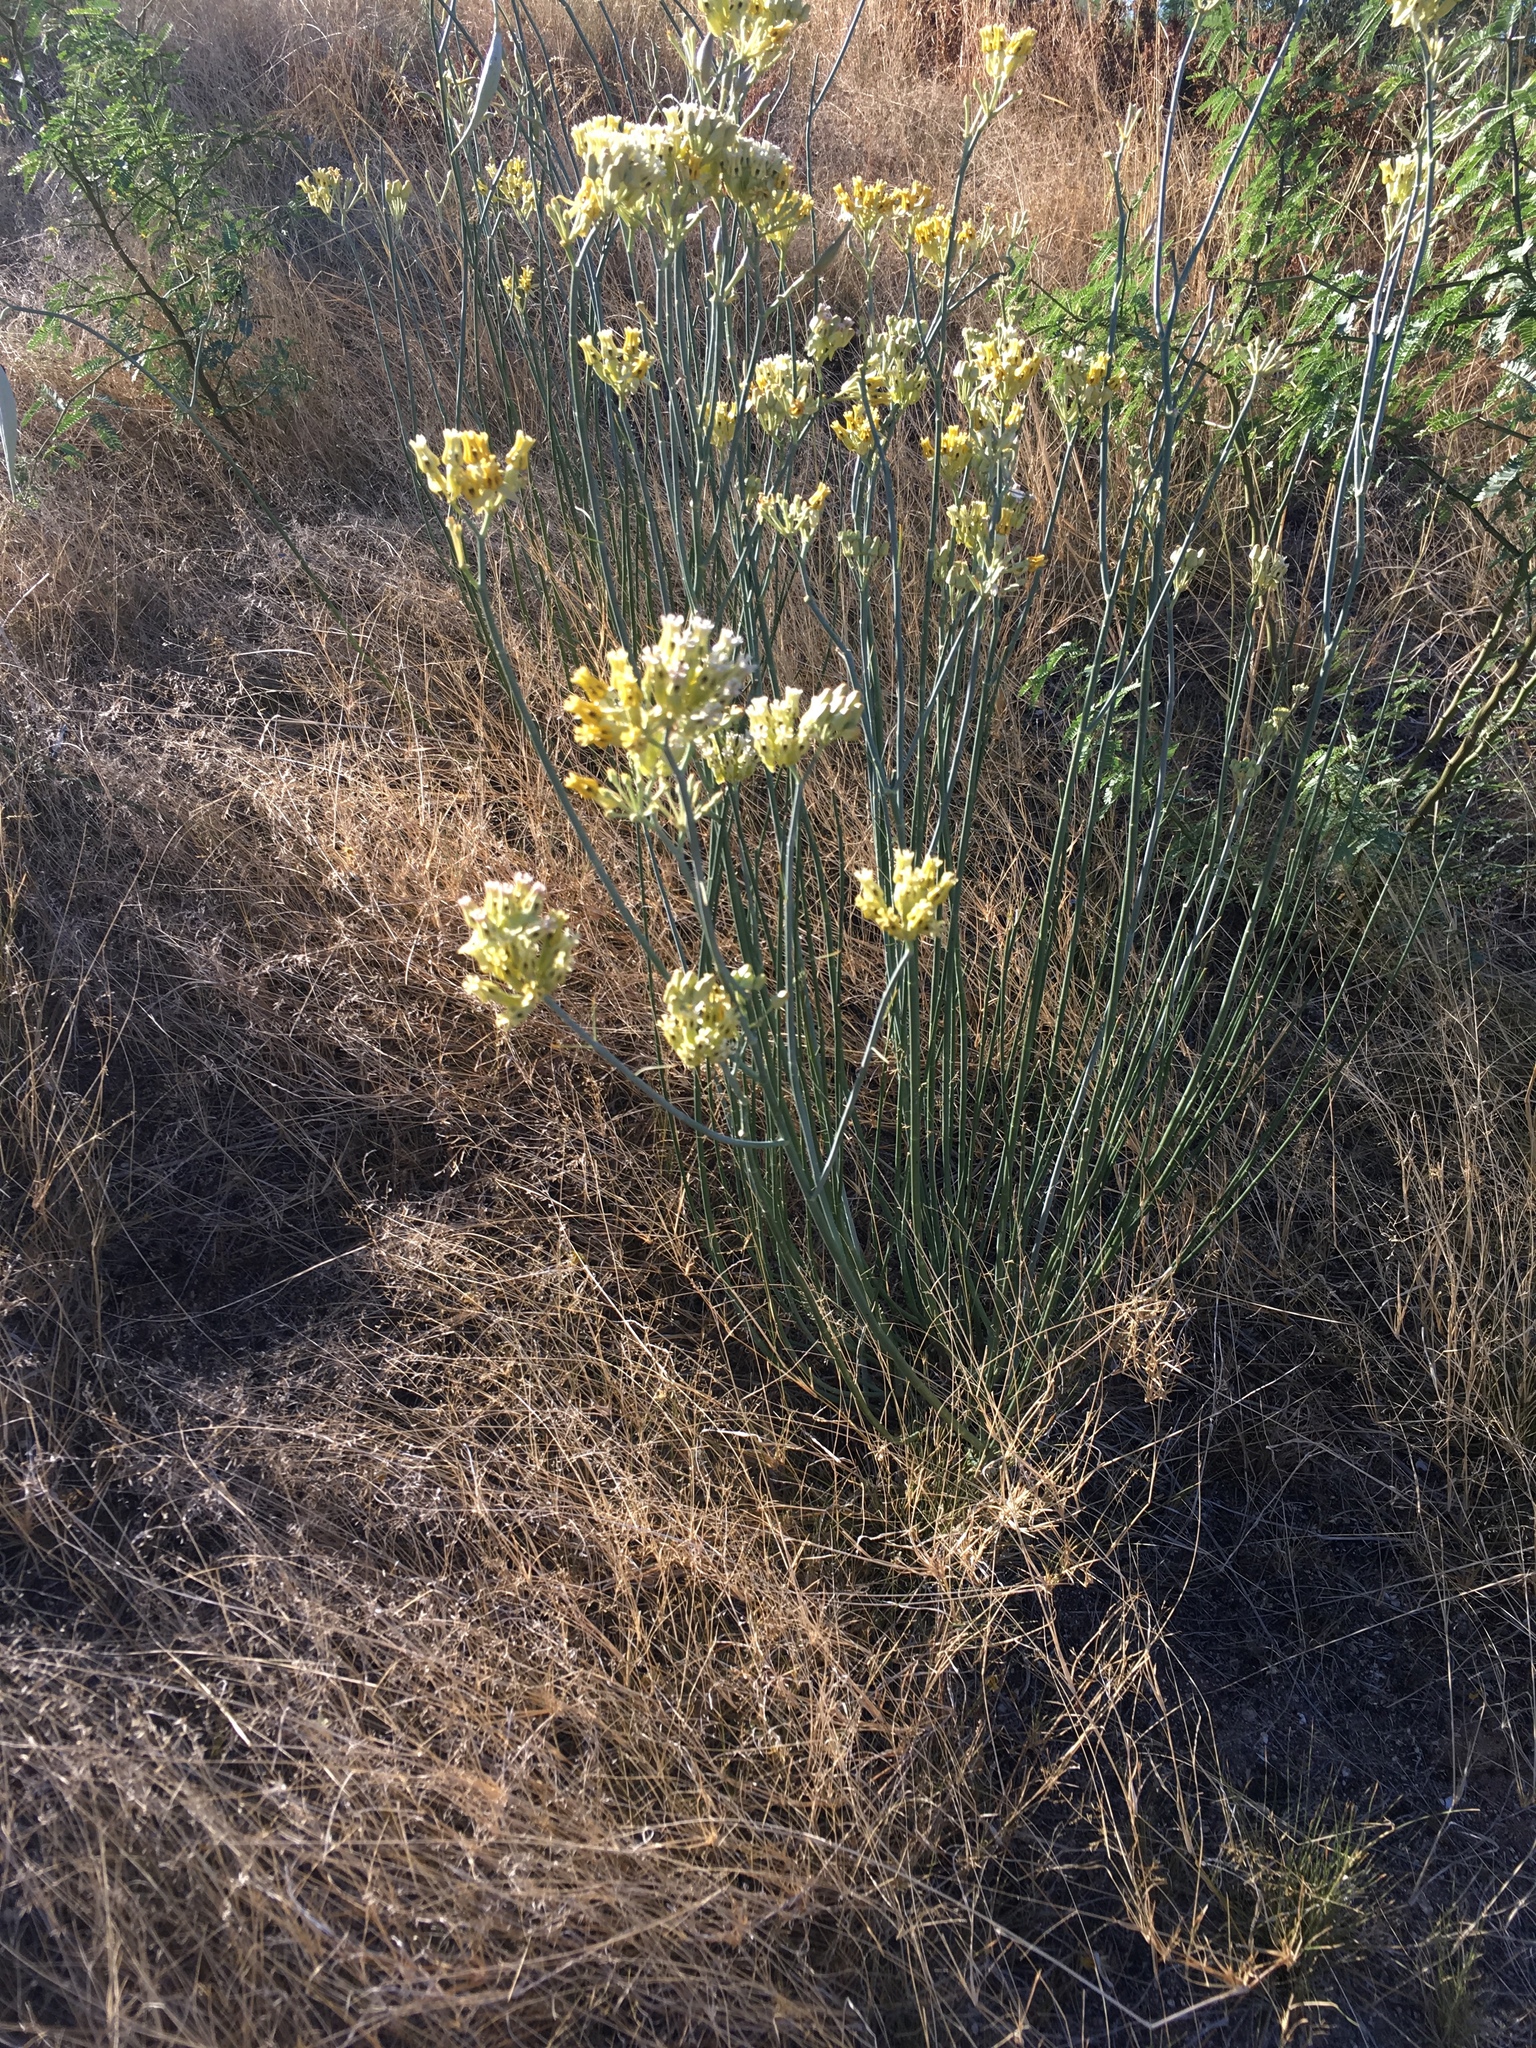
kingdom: Plantae
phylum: Tracheophyta
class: Magnoliopsida
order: Gentianales
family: Apocynaceae
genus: Asclepias
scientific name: Asclepias subulata
